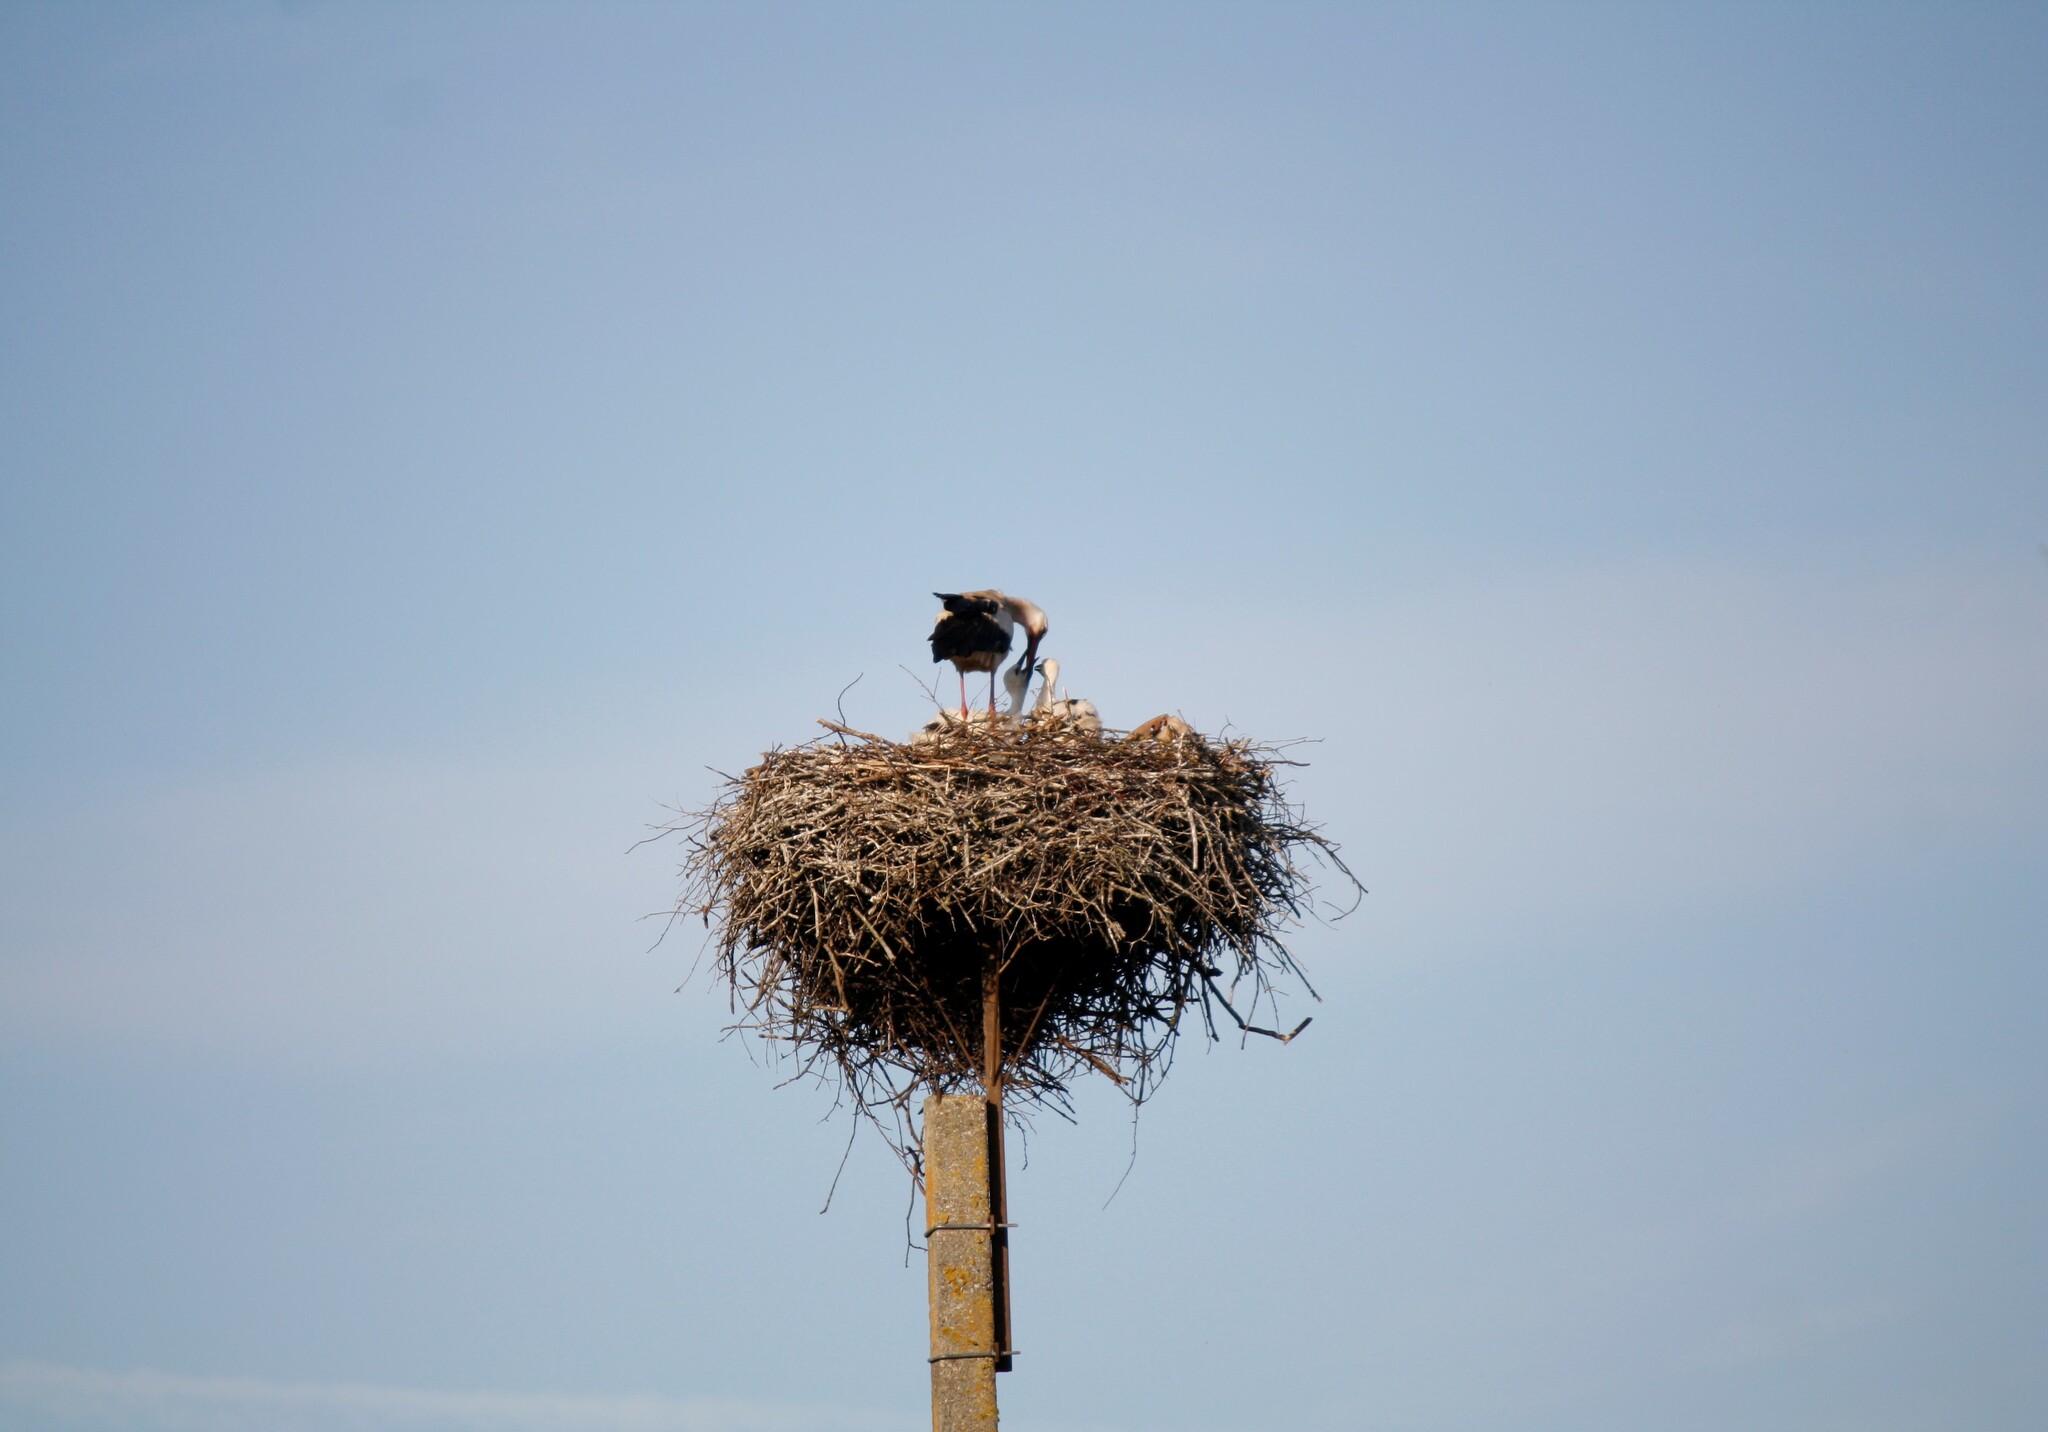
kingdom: Animalia
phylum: Chordata
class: Aves
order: Ciconiiformes
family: Ciconiidae
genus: Ciconia
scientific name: Ciconia ciconia
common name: White stork
